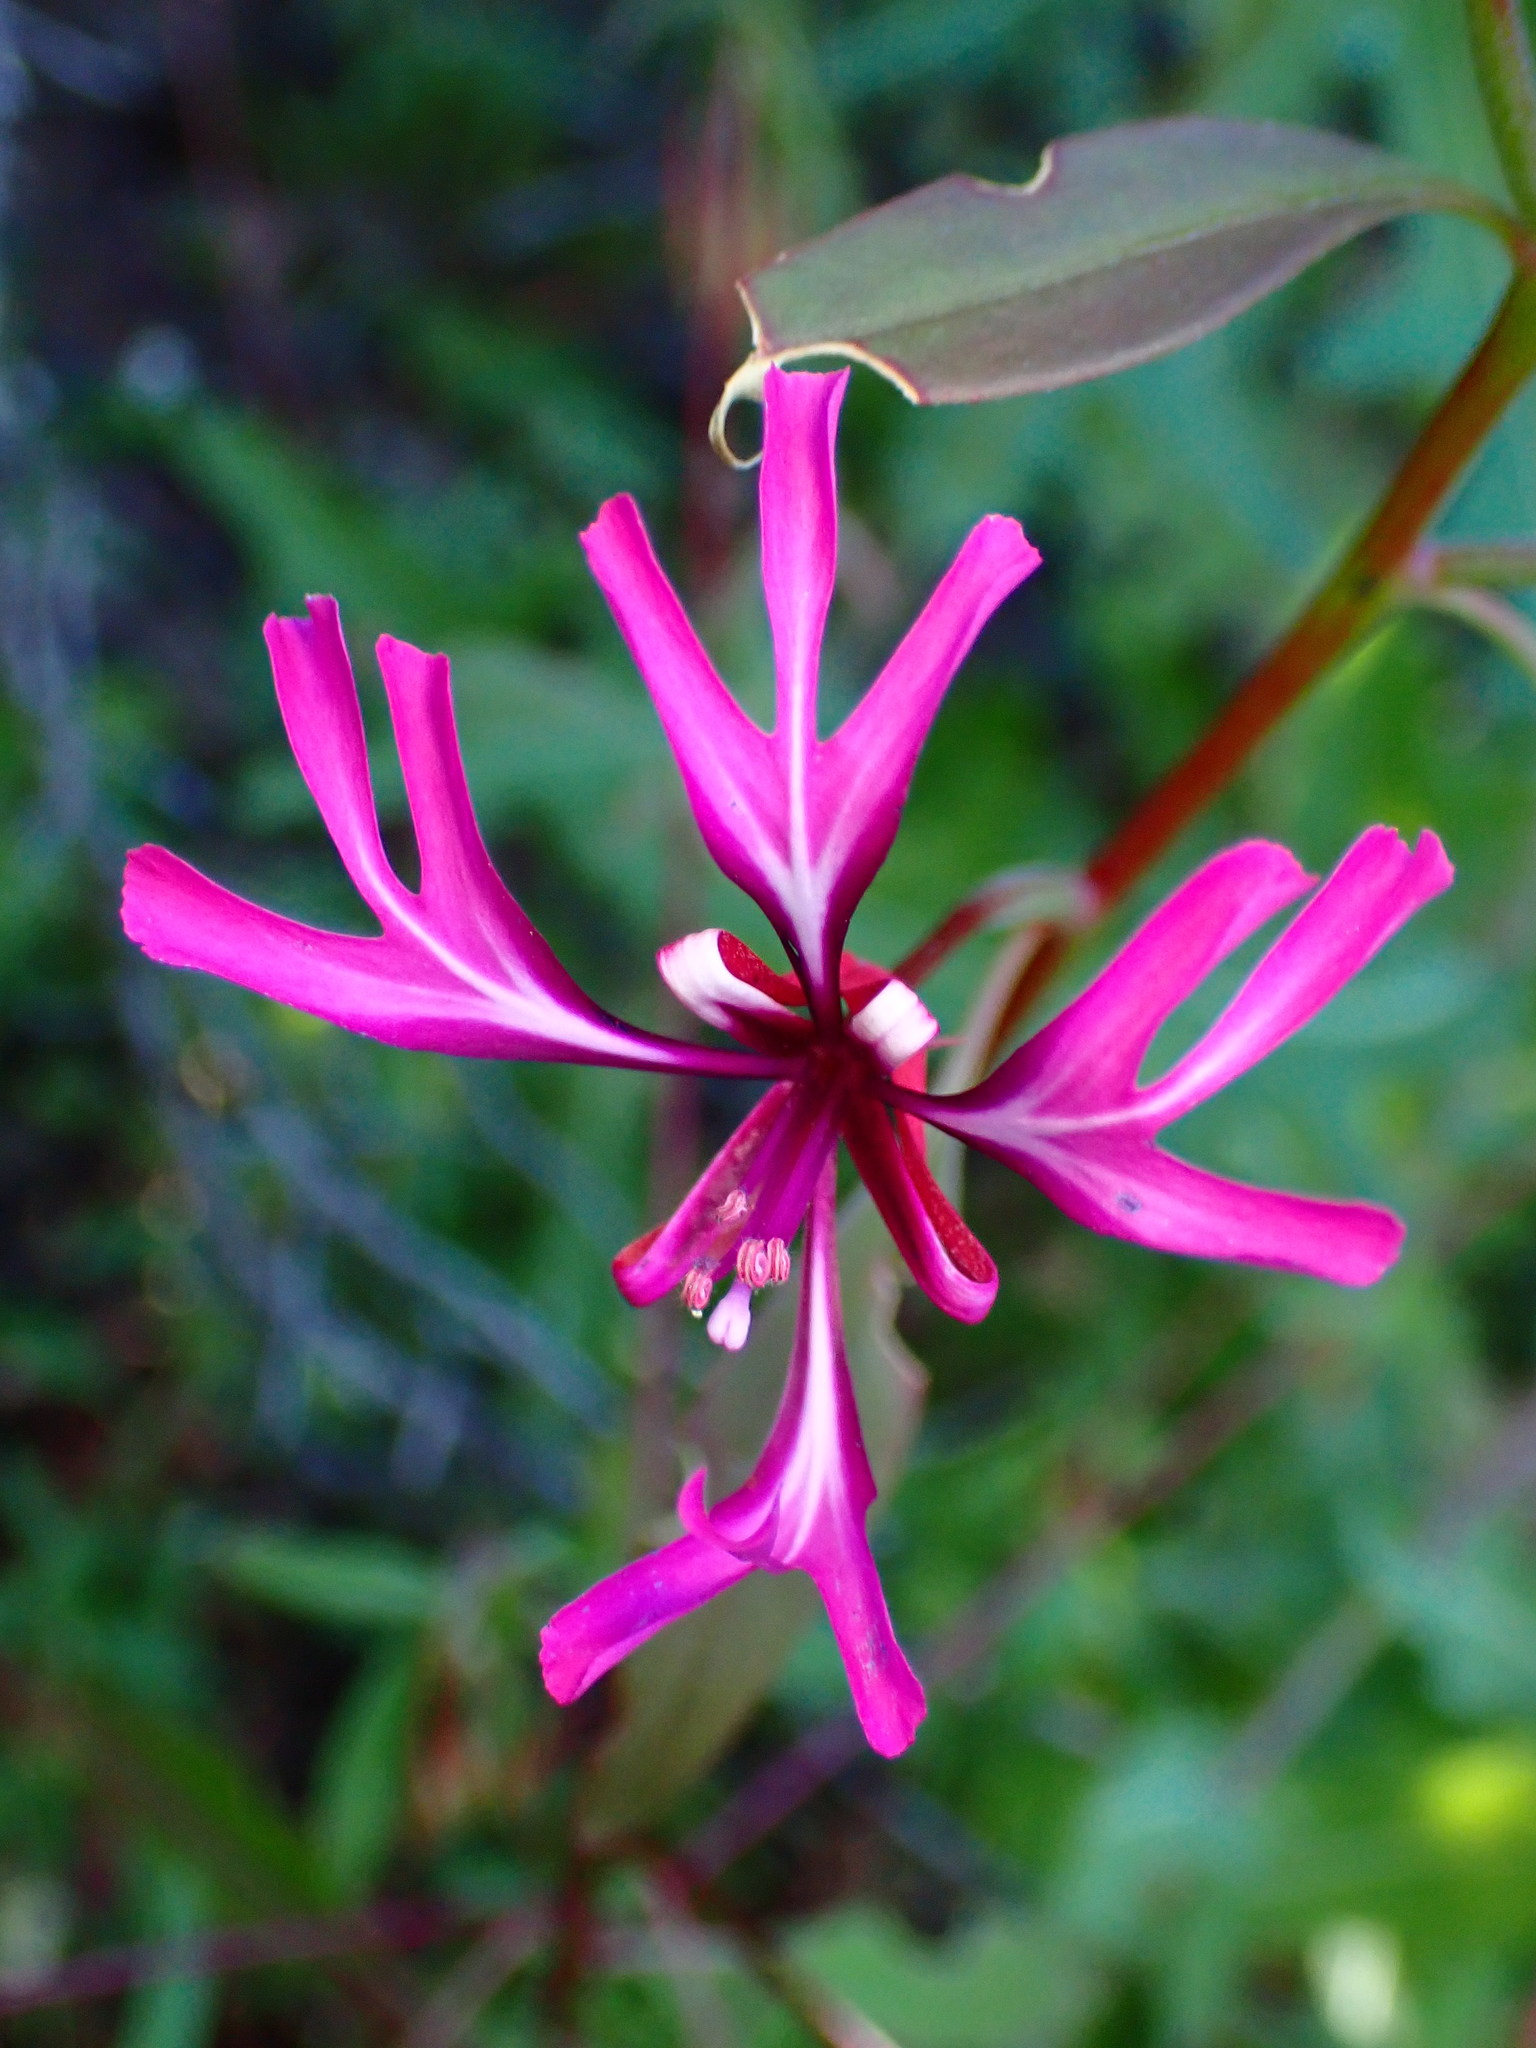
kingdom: Plantae
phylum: Tracheophyta
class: Magnoliopsida
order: Myrtales
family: Onagraceae
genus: Clarkia
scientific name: Clarkia concinna
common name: Red-ribbons
